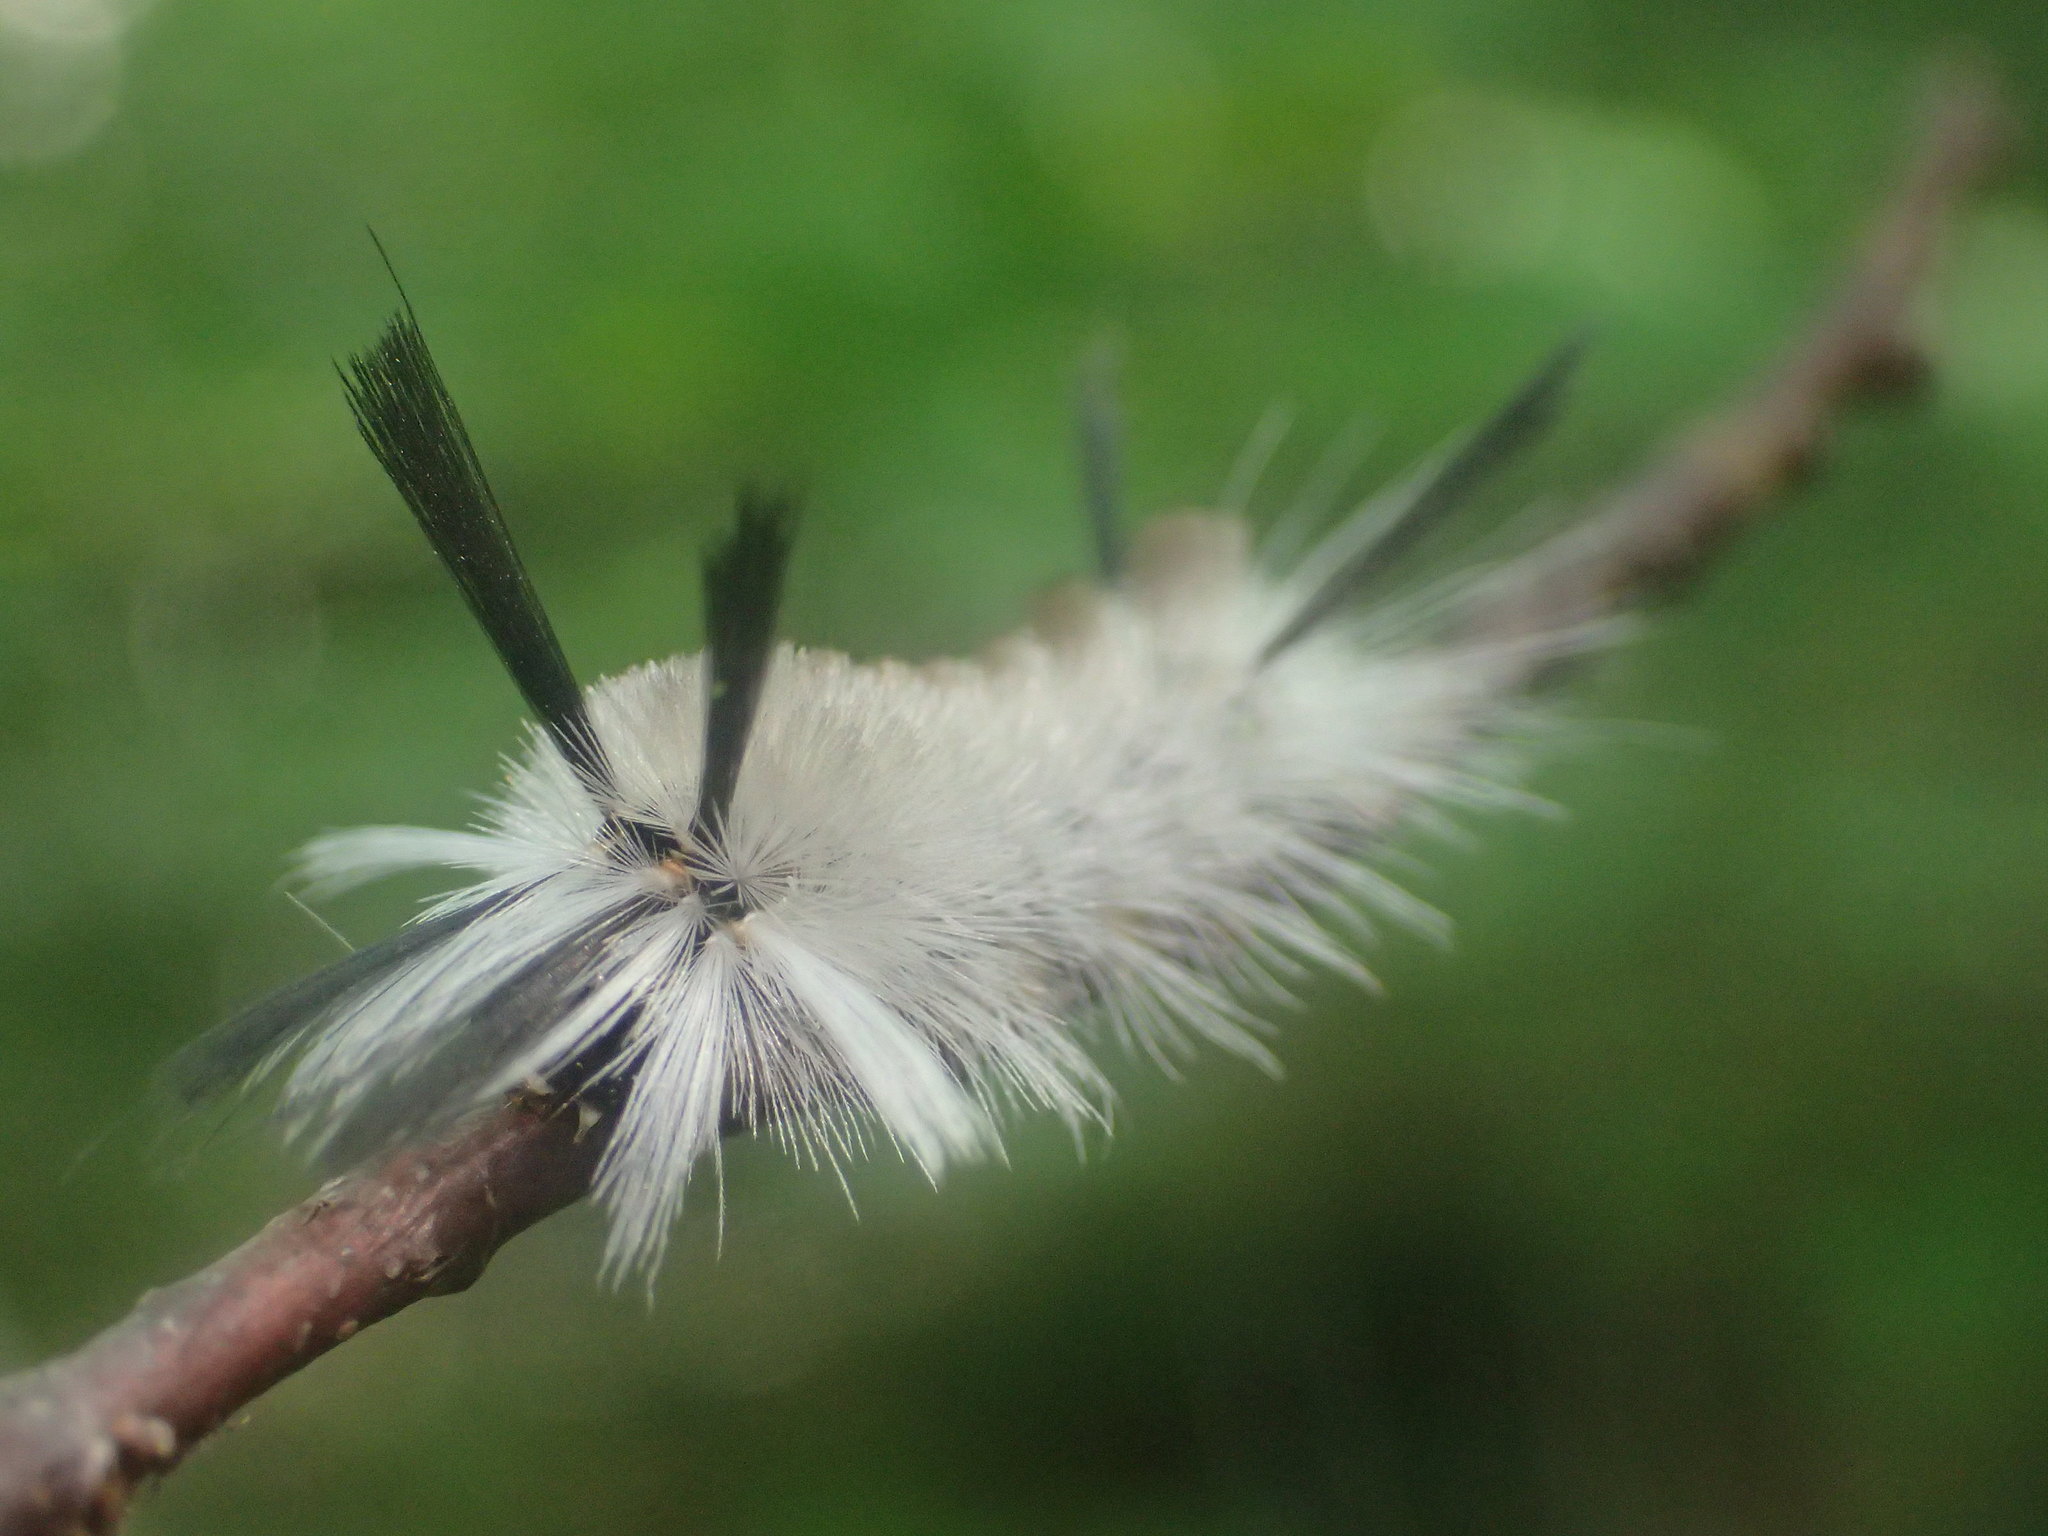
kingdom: Animalia
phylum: Arthropoda
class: Insecta
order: Lepidoptera
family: Erebidae
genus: Halysidota
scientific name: Halysidota tessellaris
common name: Banded tussock moth
